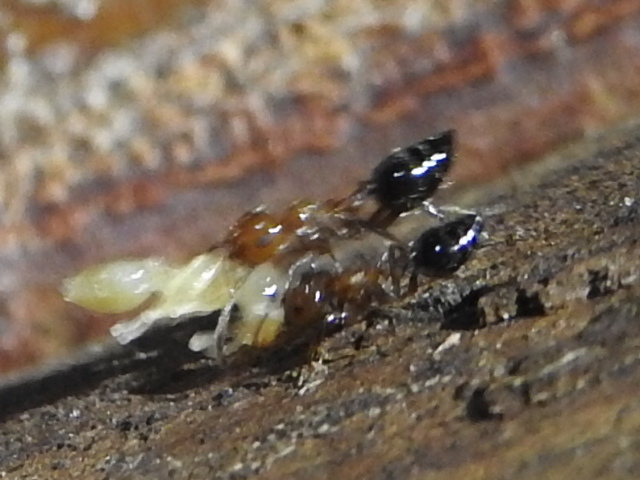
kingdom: Animalia
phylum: Arthropoda
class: Insecta
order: Hymenoptera
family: Formicidae
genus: Crematogaster
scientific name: Crematogaster laeviuscula
